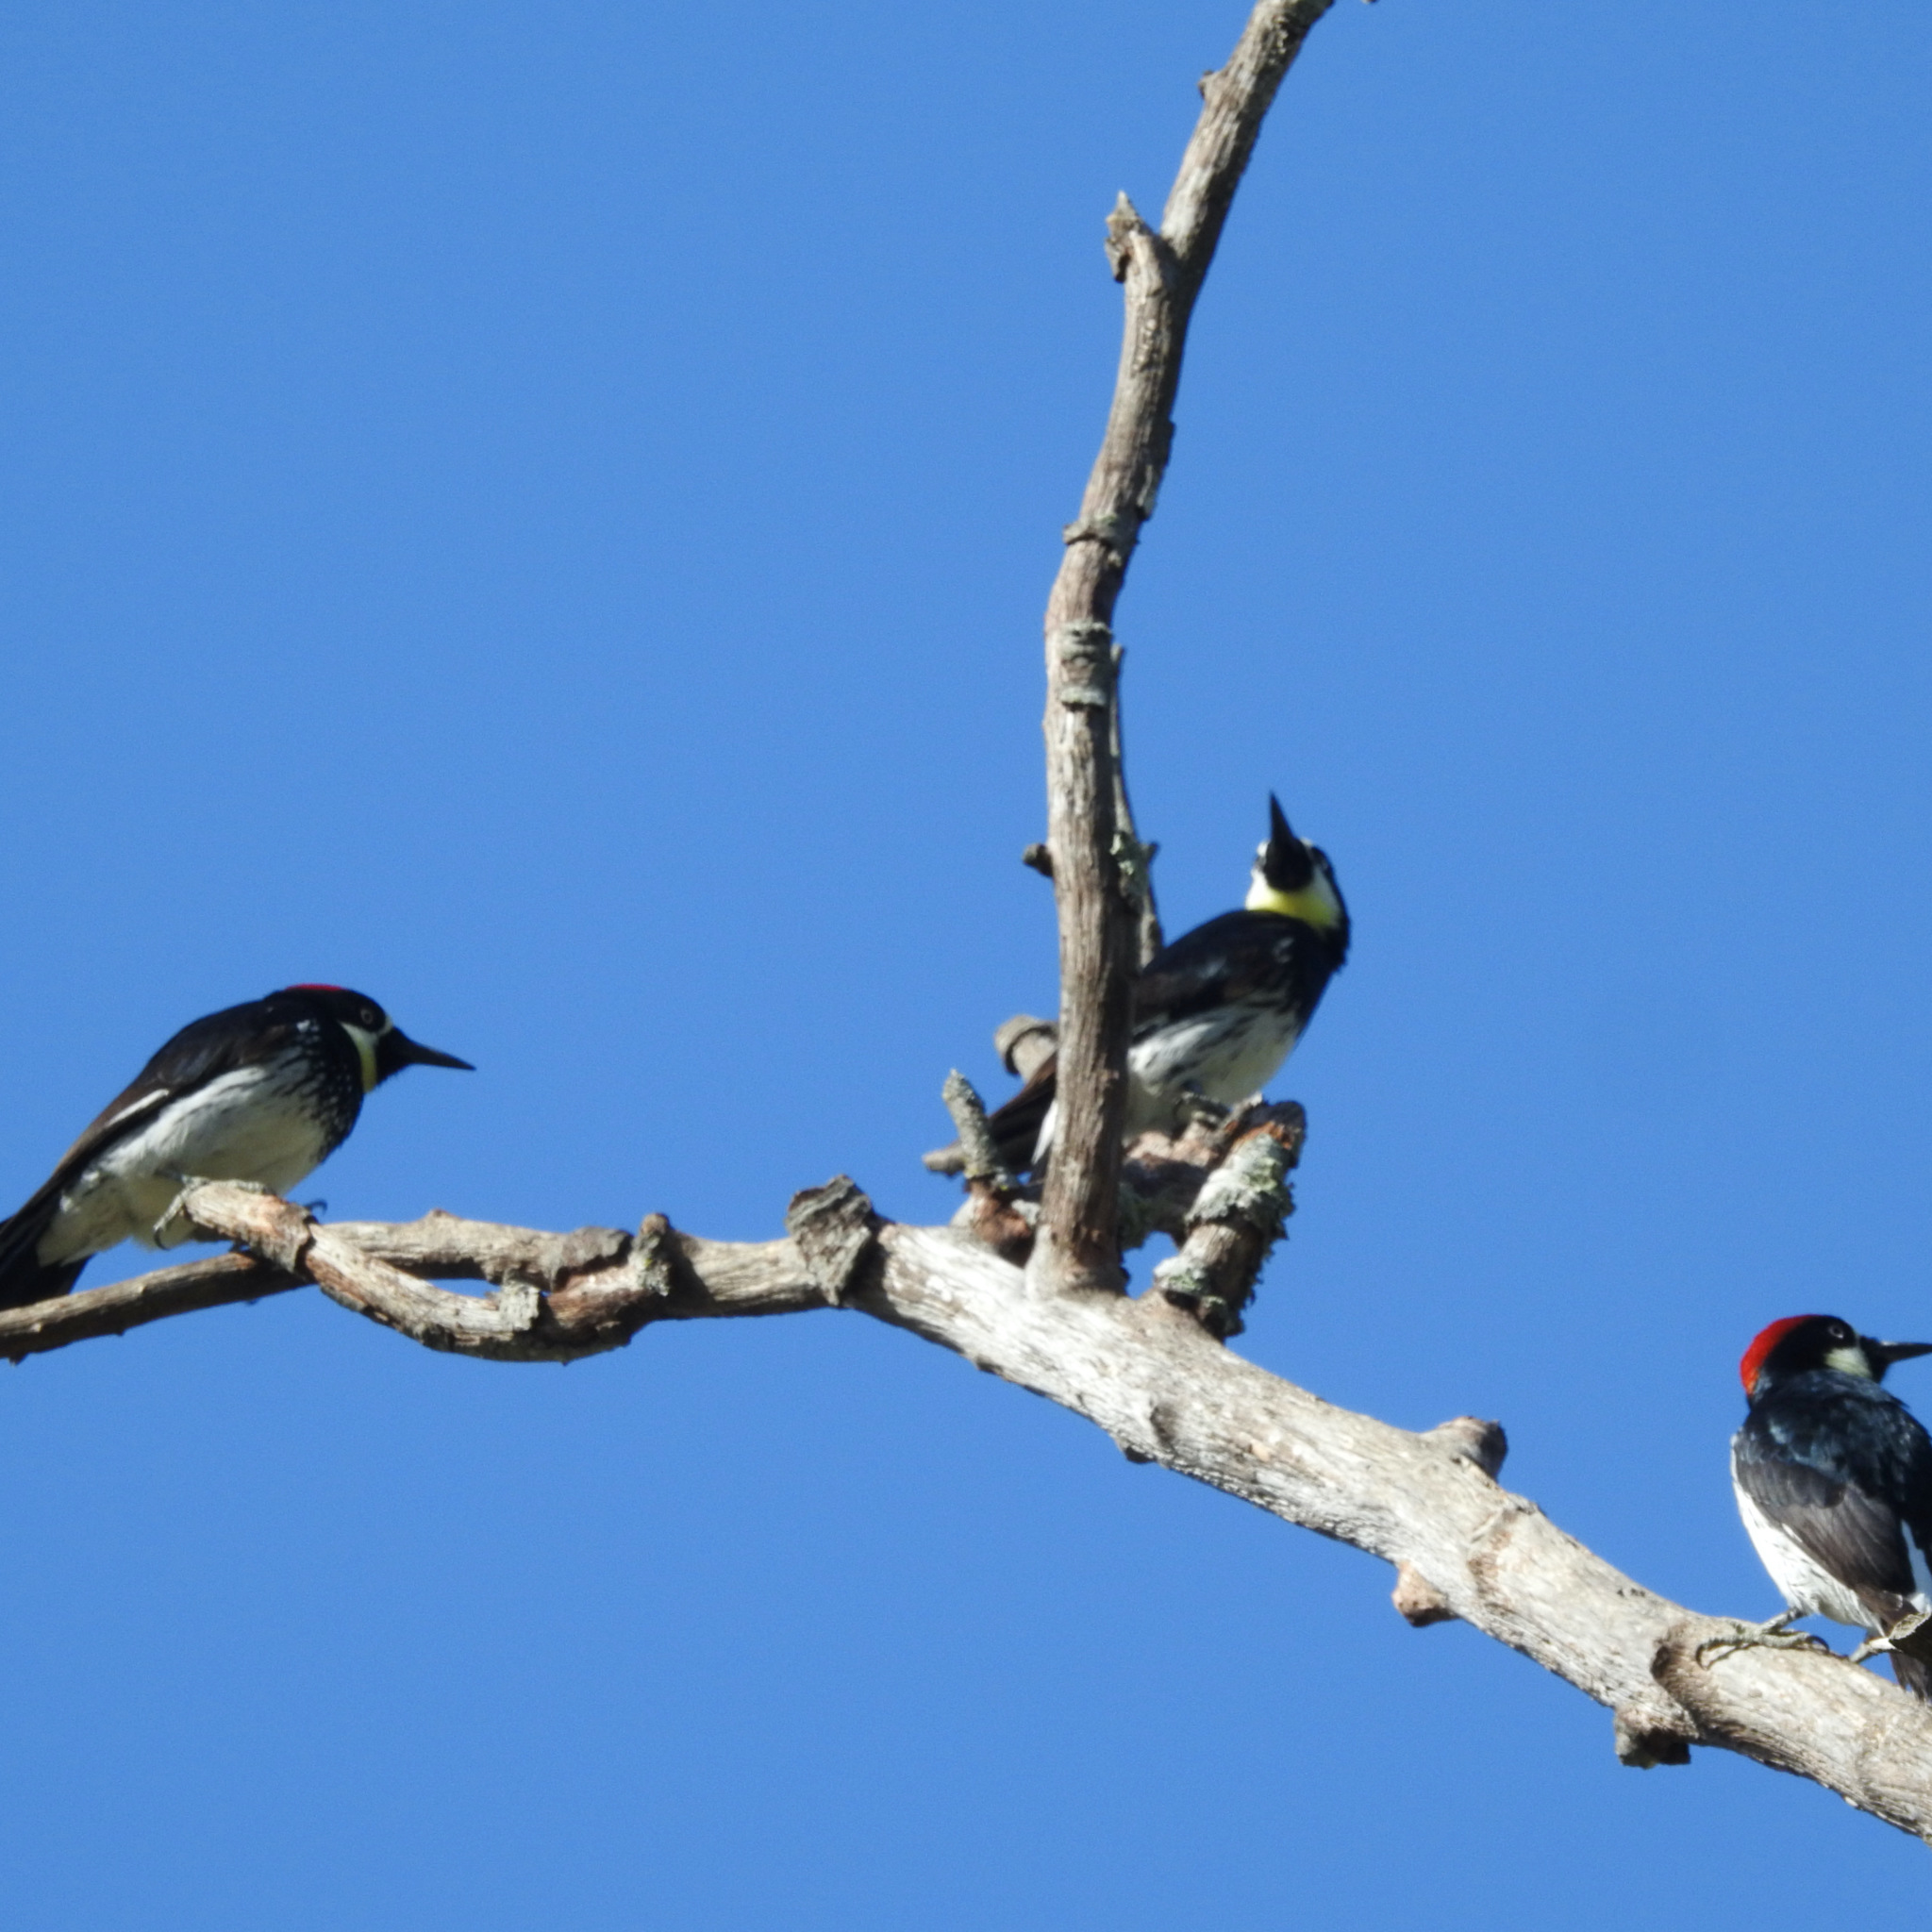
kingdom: Animalia
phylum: Chordata
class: Aves
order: Piciformes
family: Picidae
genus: Melanerpes
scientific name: Melanerpes formicivorus
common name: Acorn woodpecker
